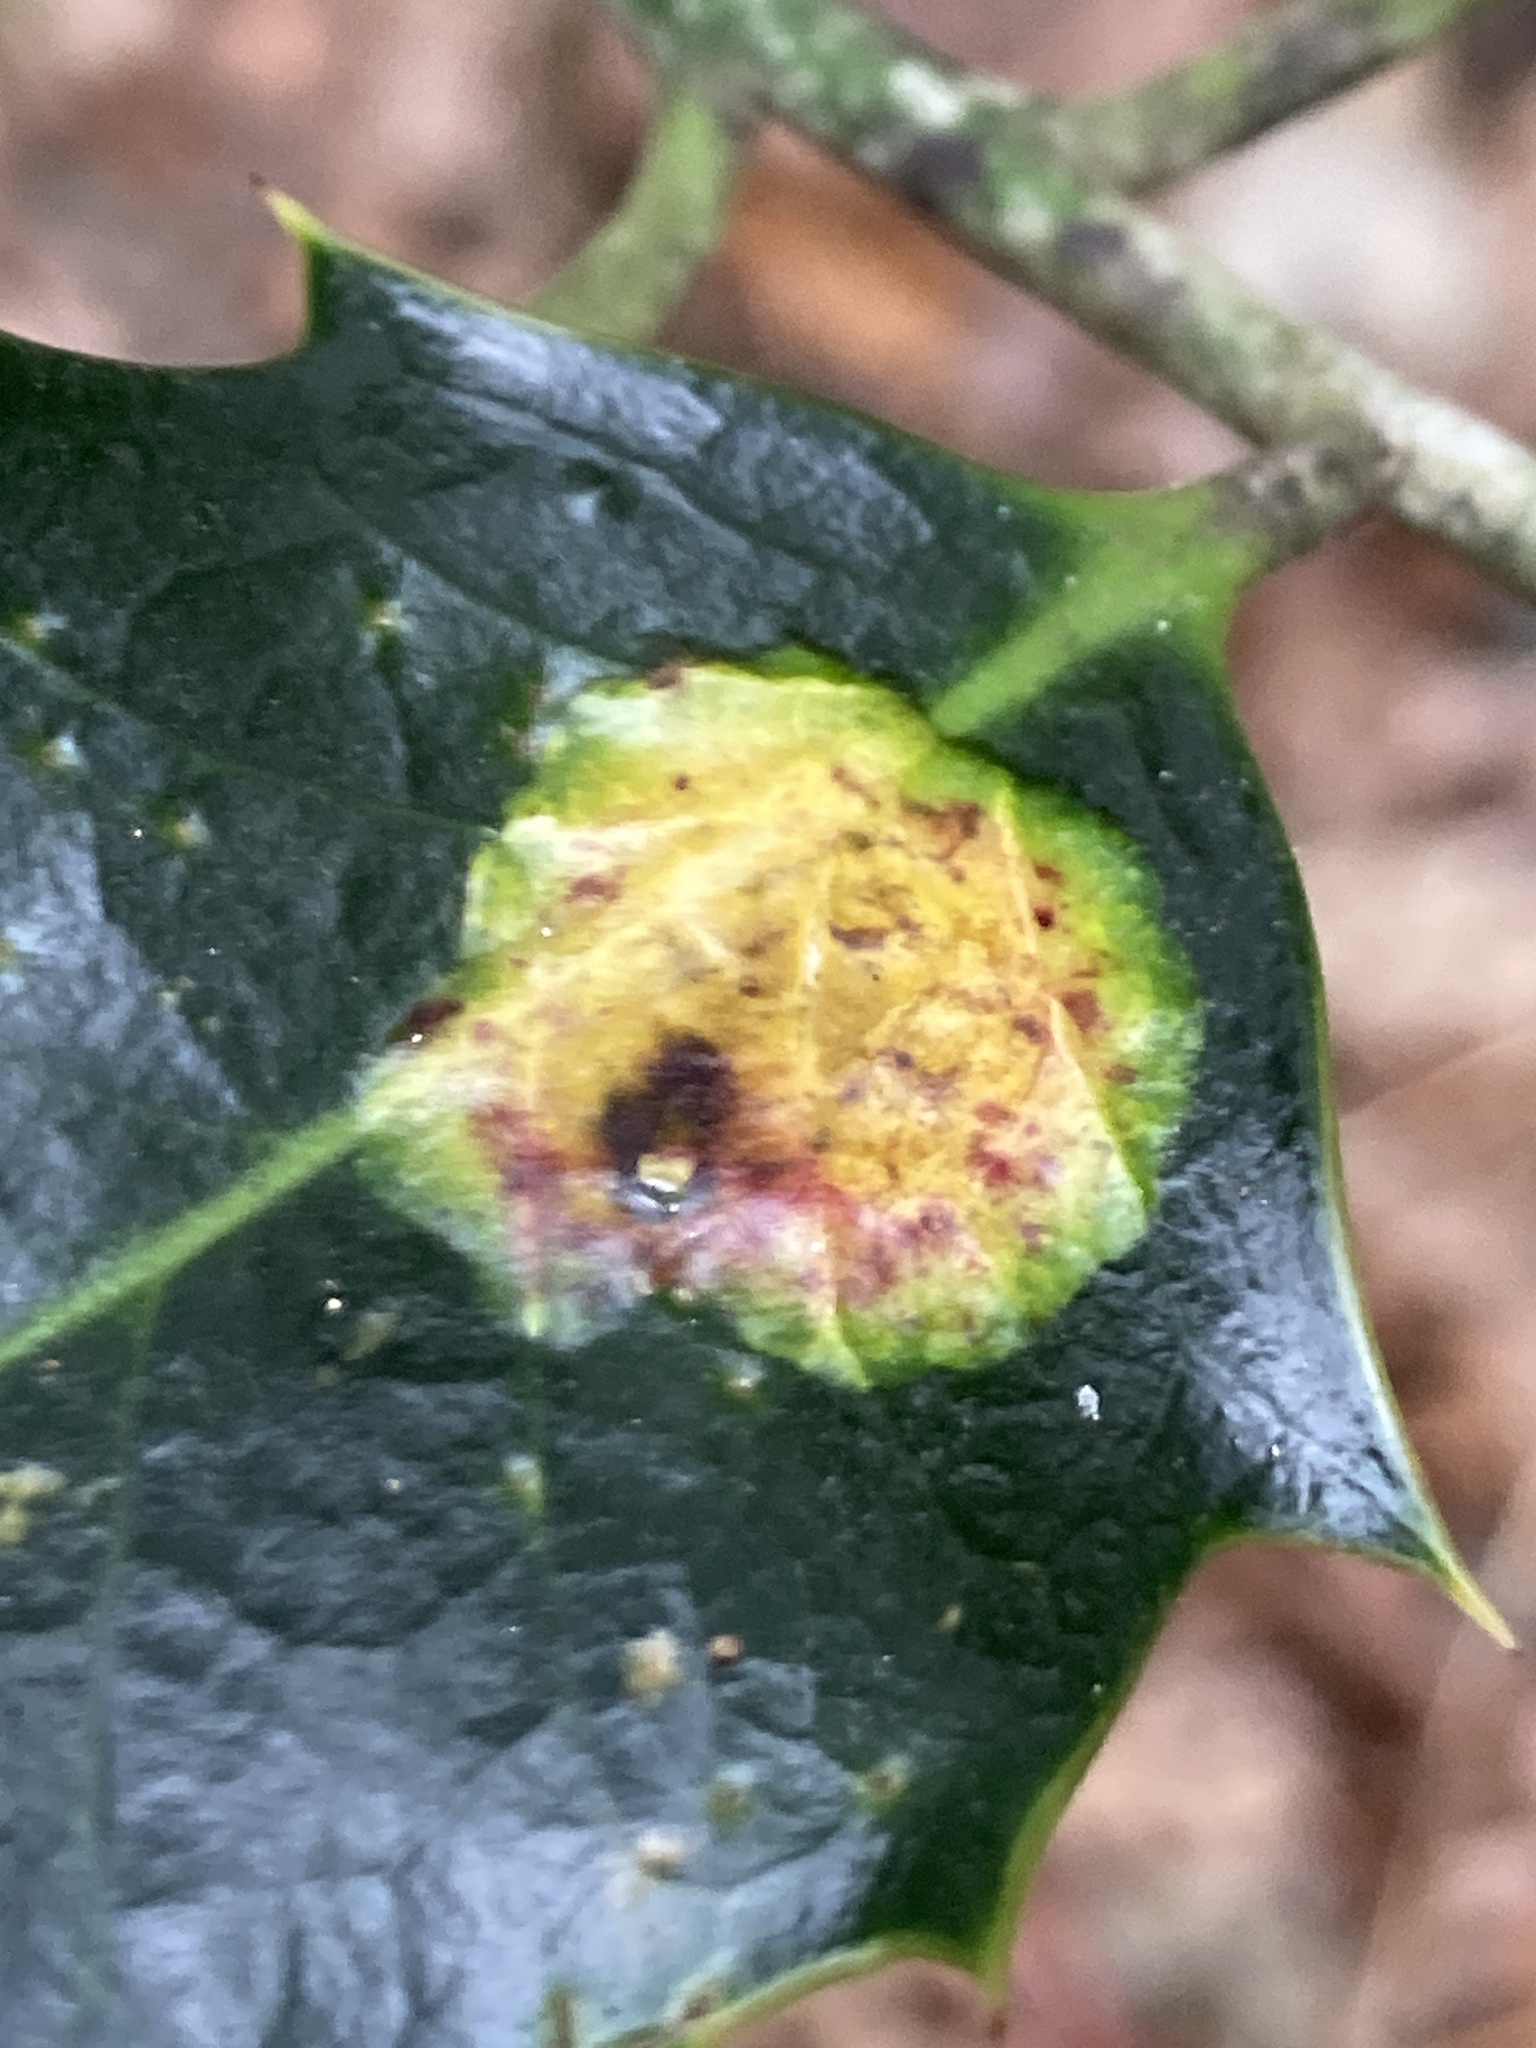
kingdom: Animalia
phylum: Arthropoda
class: Insecta
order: Diptera
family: Agromyzidae
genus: Phytomyza
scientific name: Phytomyza ilicis
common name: Holly leafminer
